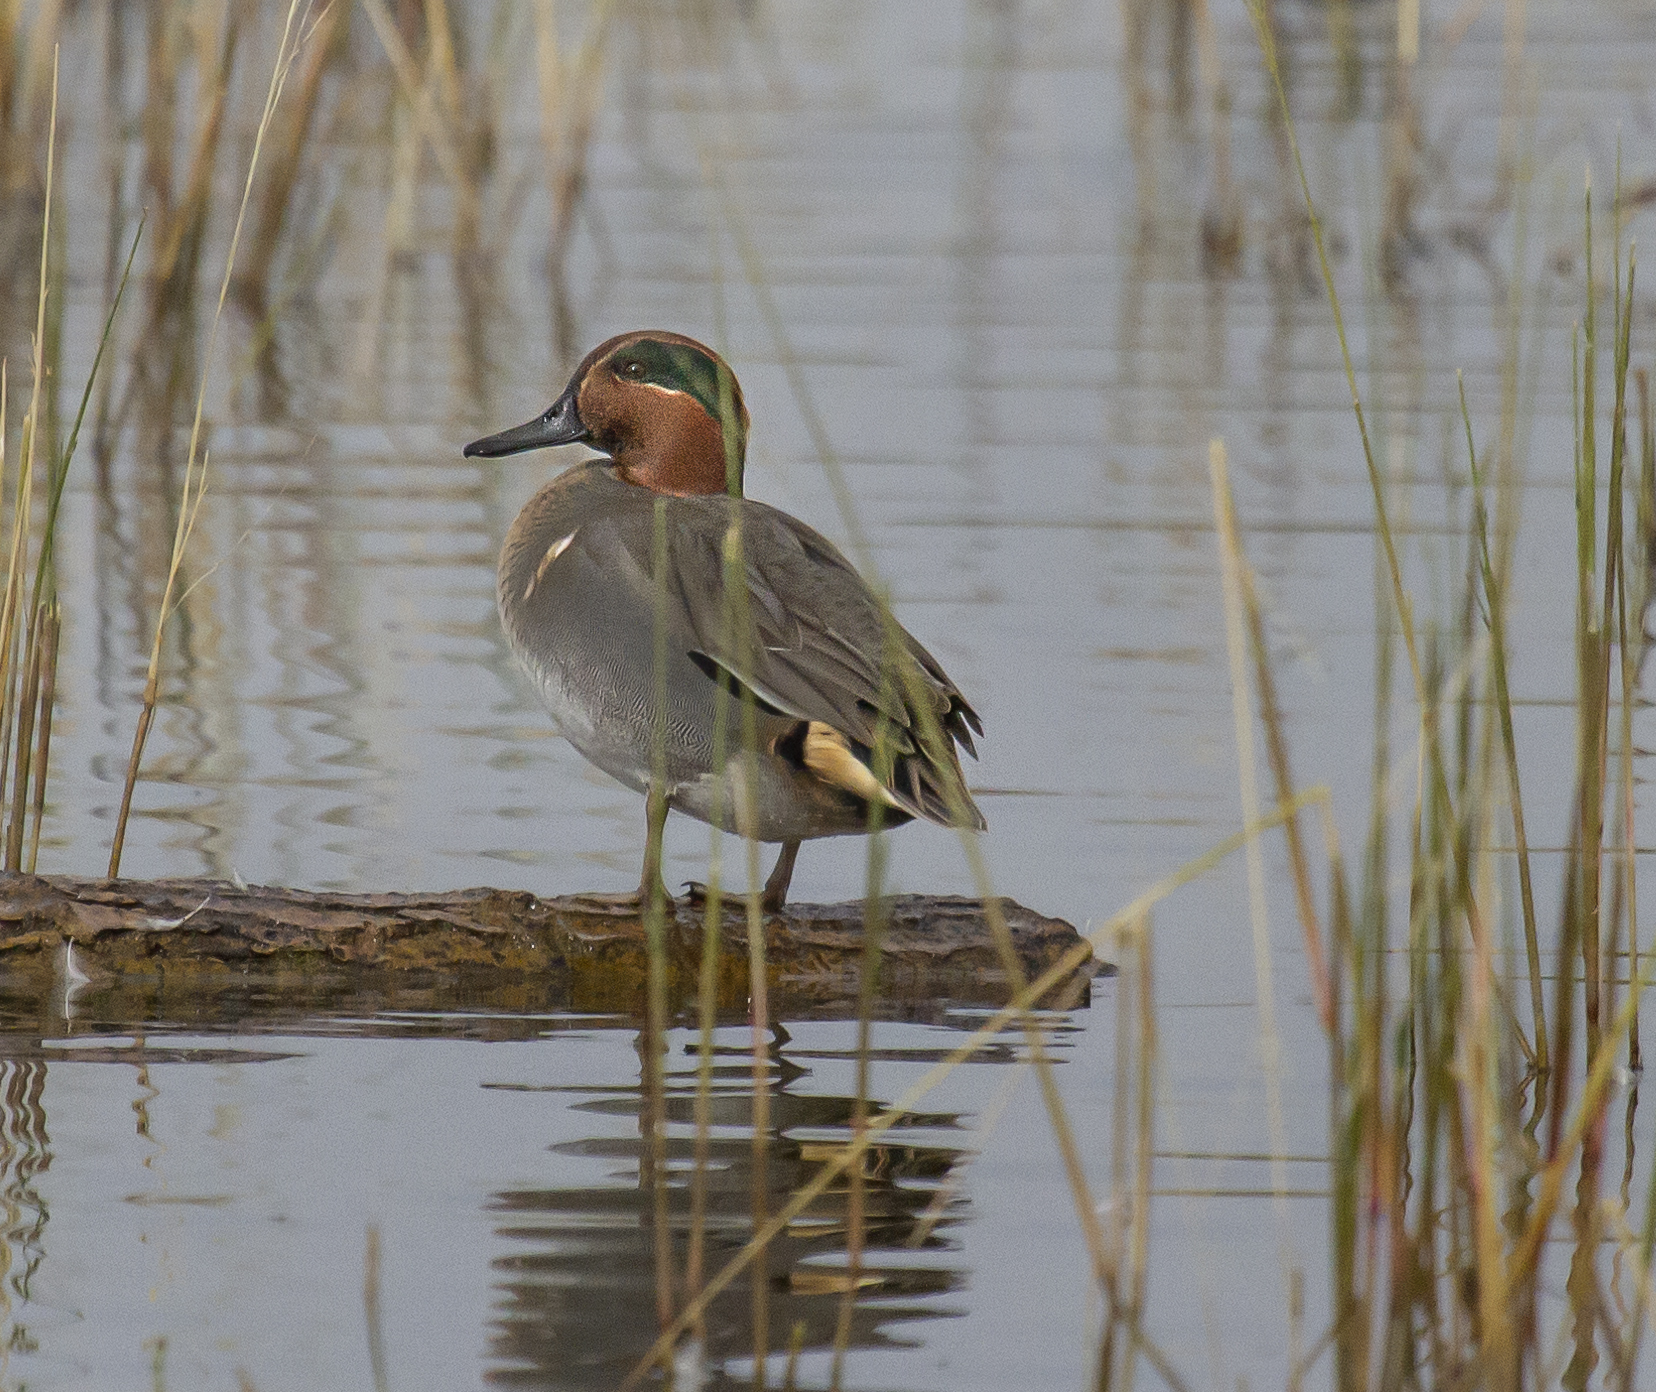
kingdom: Animalia
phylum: Chordata
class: Aves
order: Anseriformes
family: Anatidae
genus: Anas
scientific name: Anas crecca
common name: Eurasian teal
